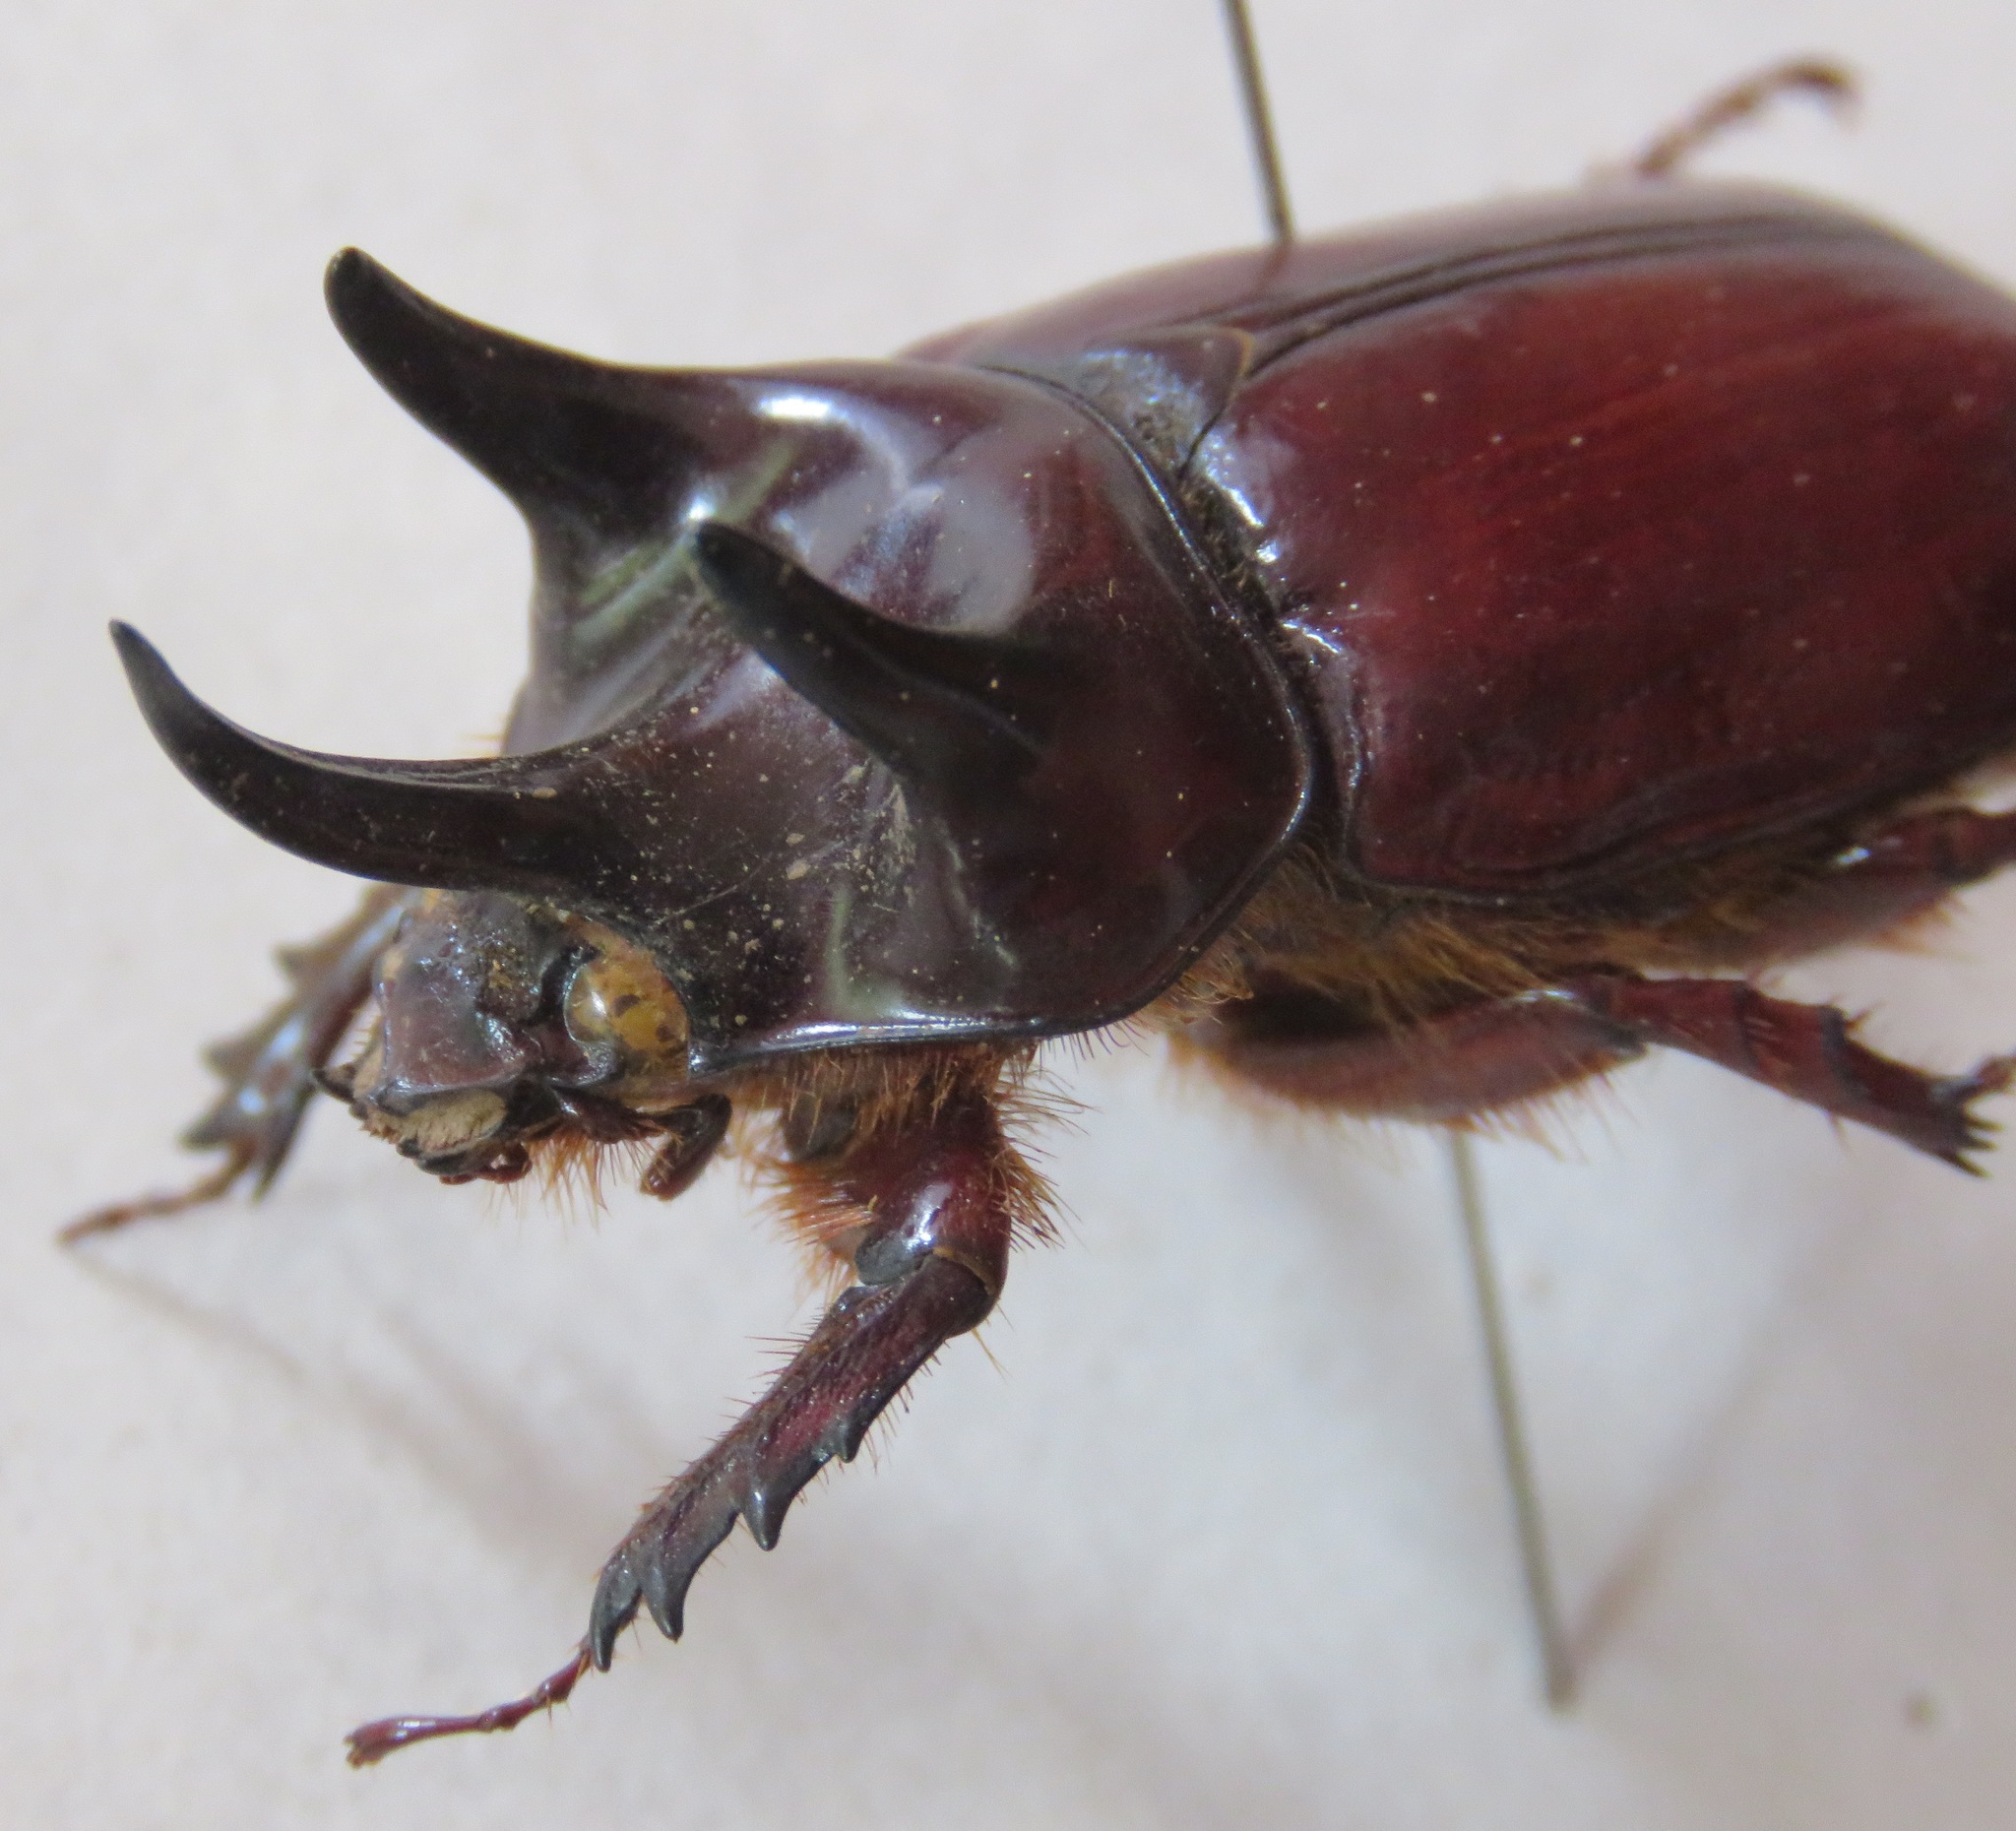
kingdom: Animalia
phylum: Arthropoda
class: Insecta
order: Coleoptera
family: Scarabaeidae
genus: Strategus
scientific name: Strategus jugurtha
